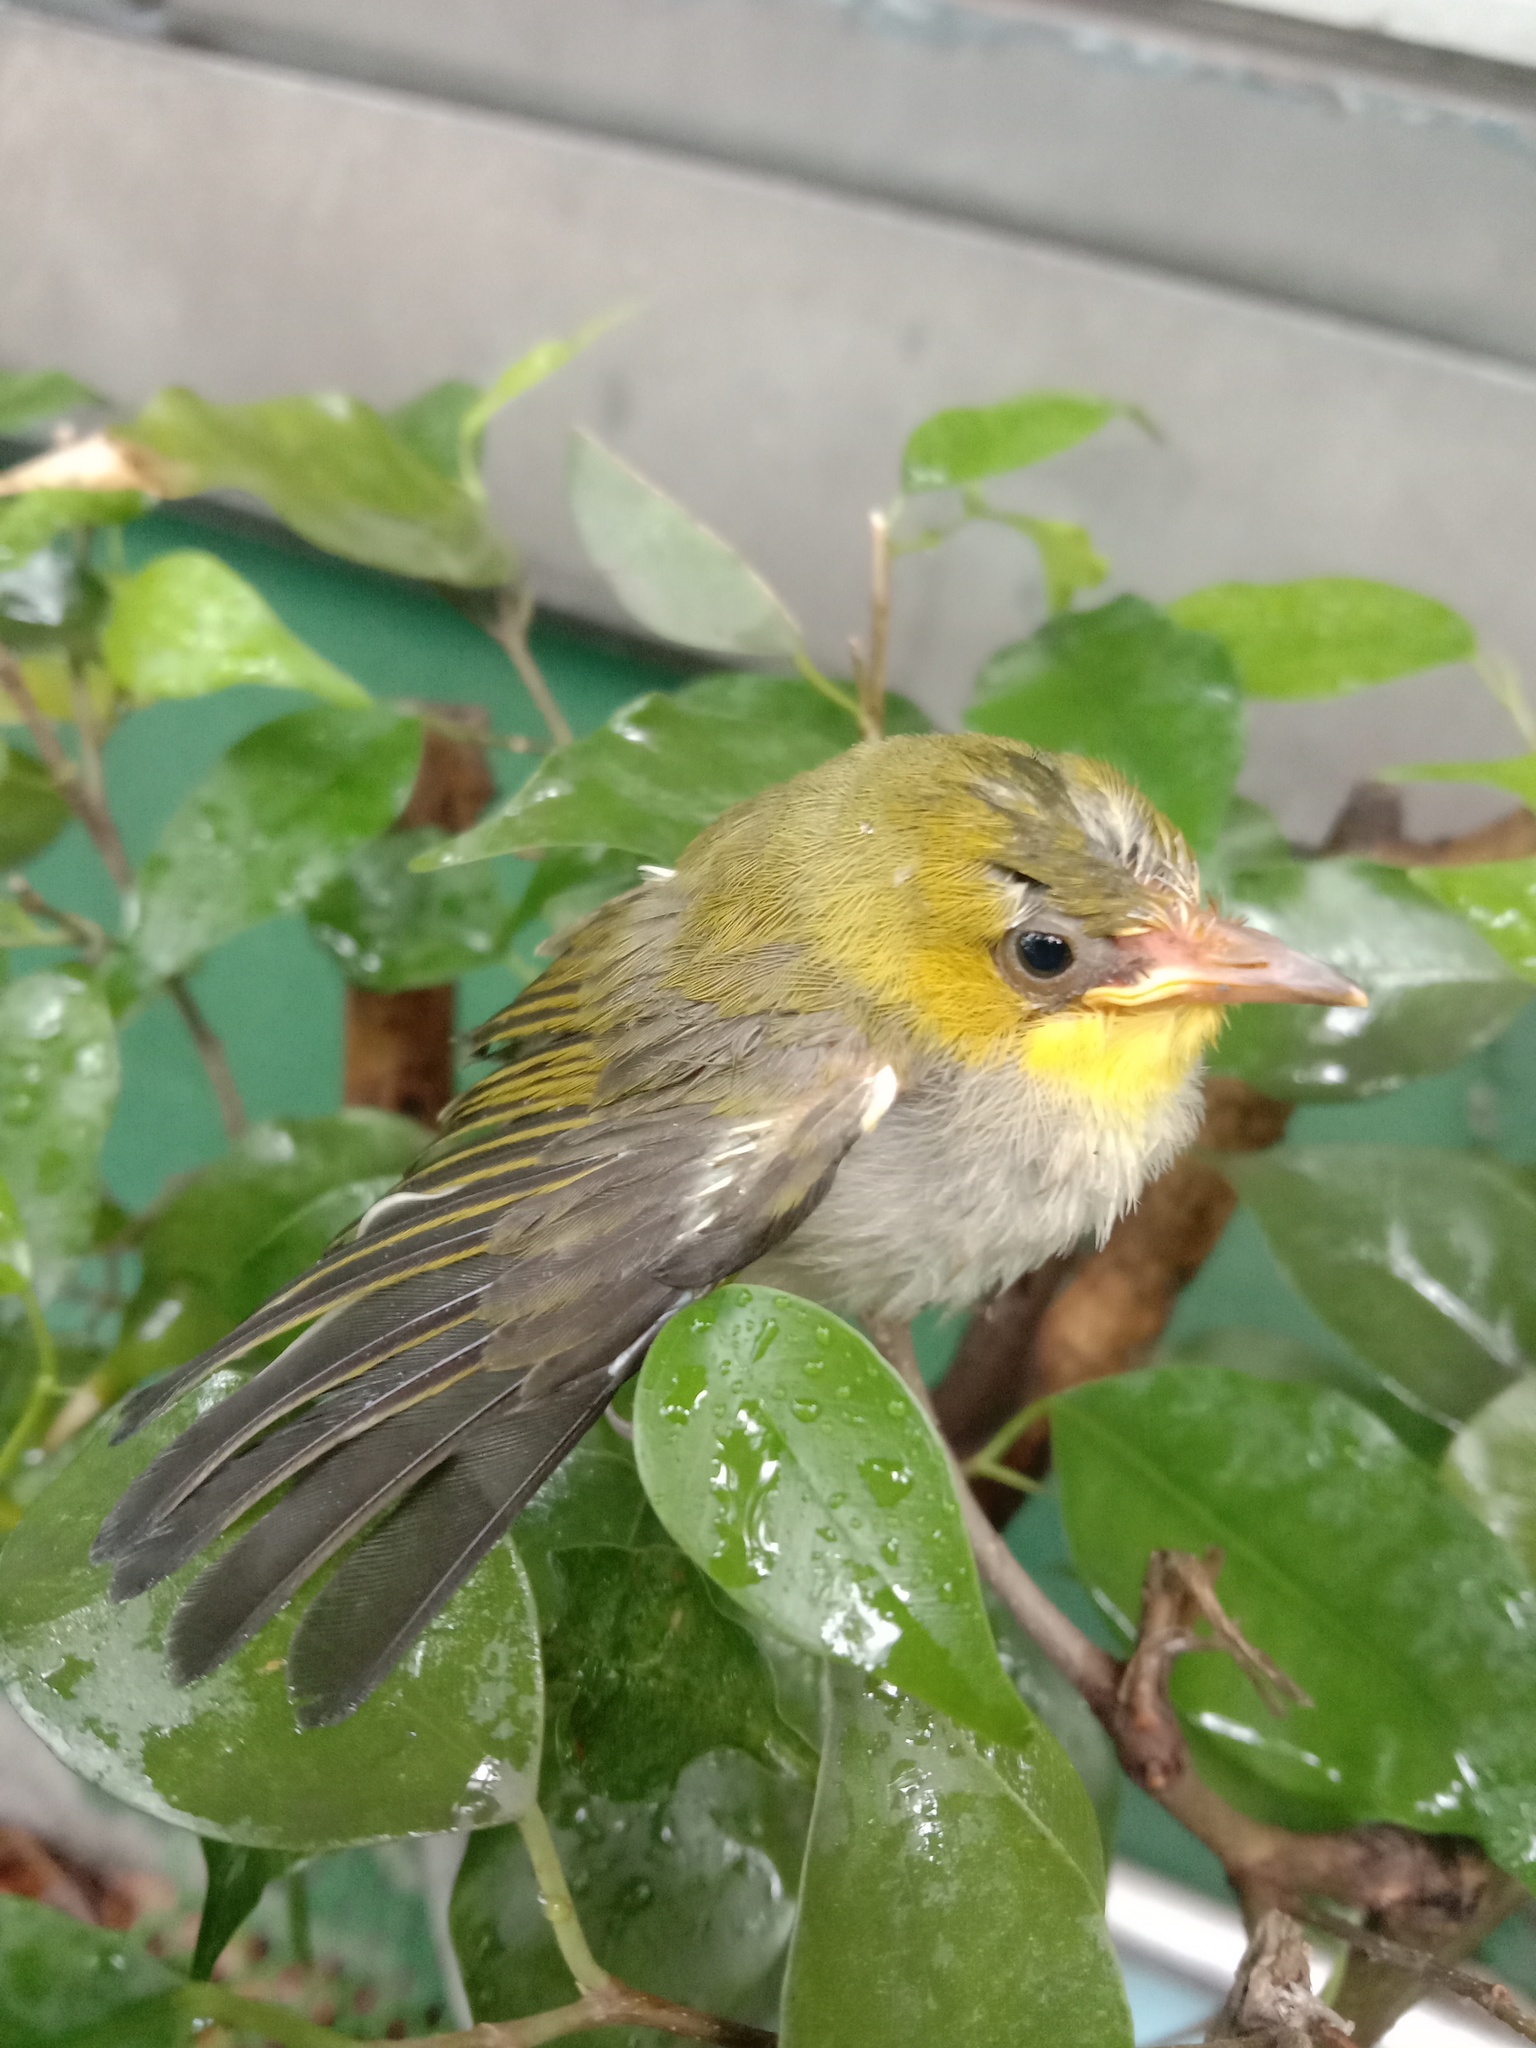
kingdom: Animalia
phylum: Chordata
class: Aves
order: Passeriformes
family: Zosteropidae
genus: Zosterops
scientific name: Zosterops simplex
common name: Swinhoe's white-eye
